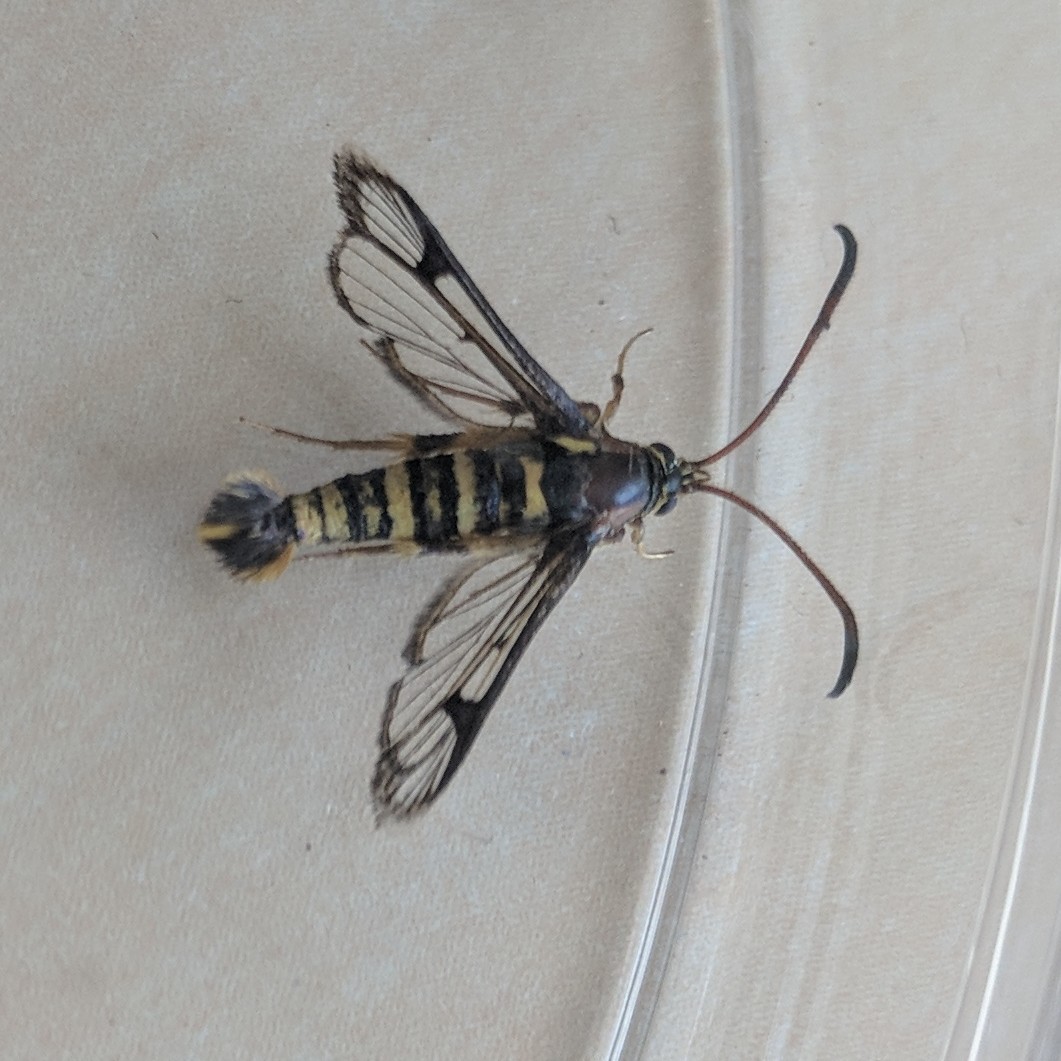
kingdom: Animalia
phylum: Arthropoda
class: Insecta
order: Lepidoptera
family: Sesiidae
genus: Synanthedon
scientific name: Synanthedon bibionipennis
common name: Strawberry crown moth
